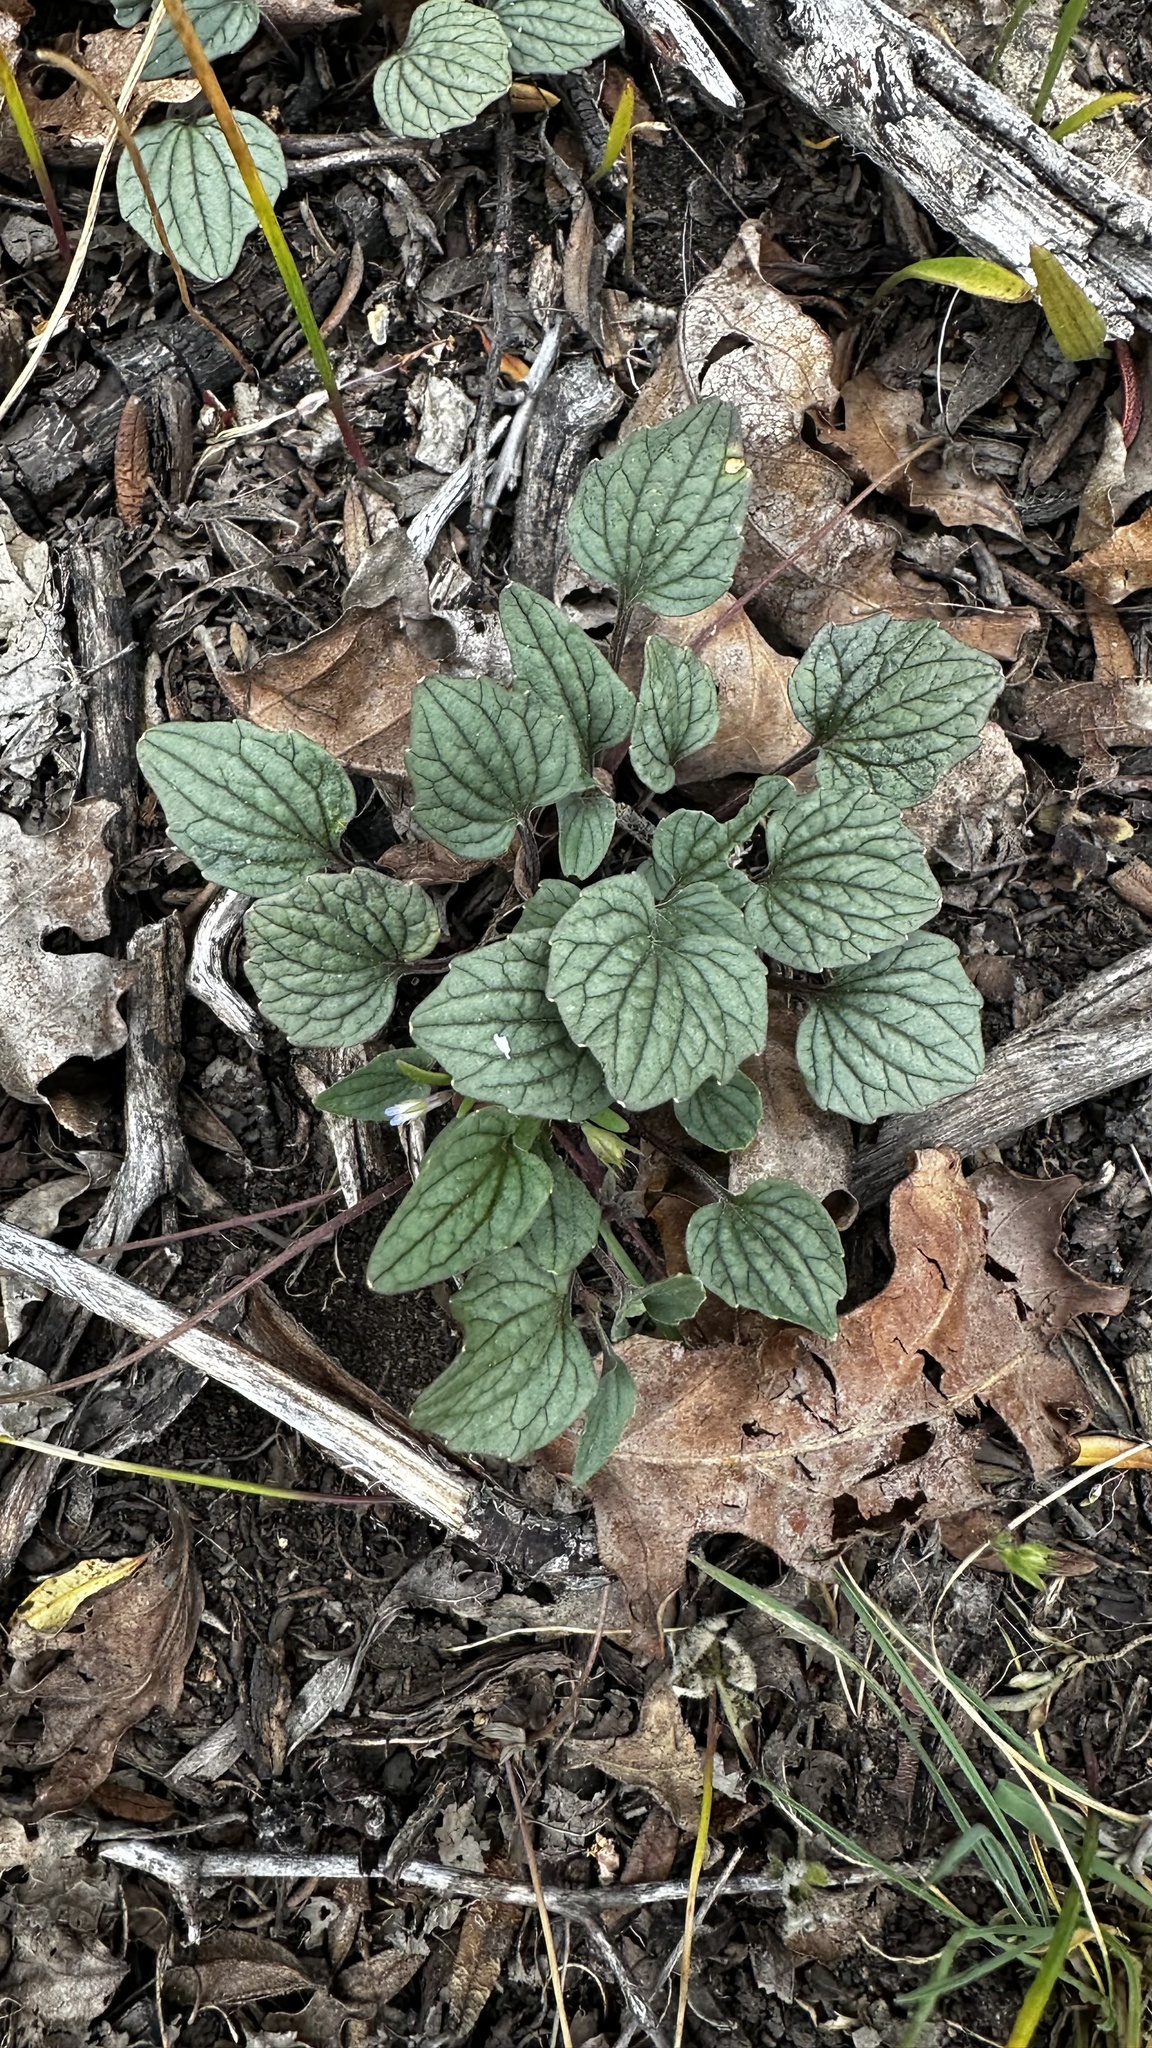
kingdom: Plantae
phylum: Tracheophyta
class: Magnoliopsida
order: Malpighiales
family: Violaceae
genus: Viola
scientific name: Viola purpurea
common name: Pine violet
